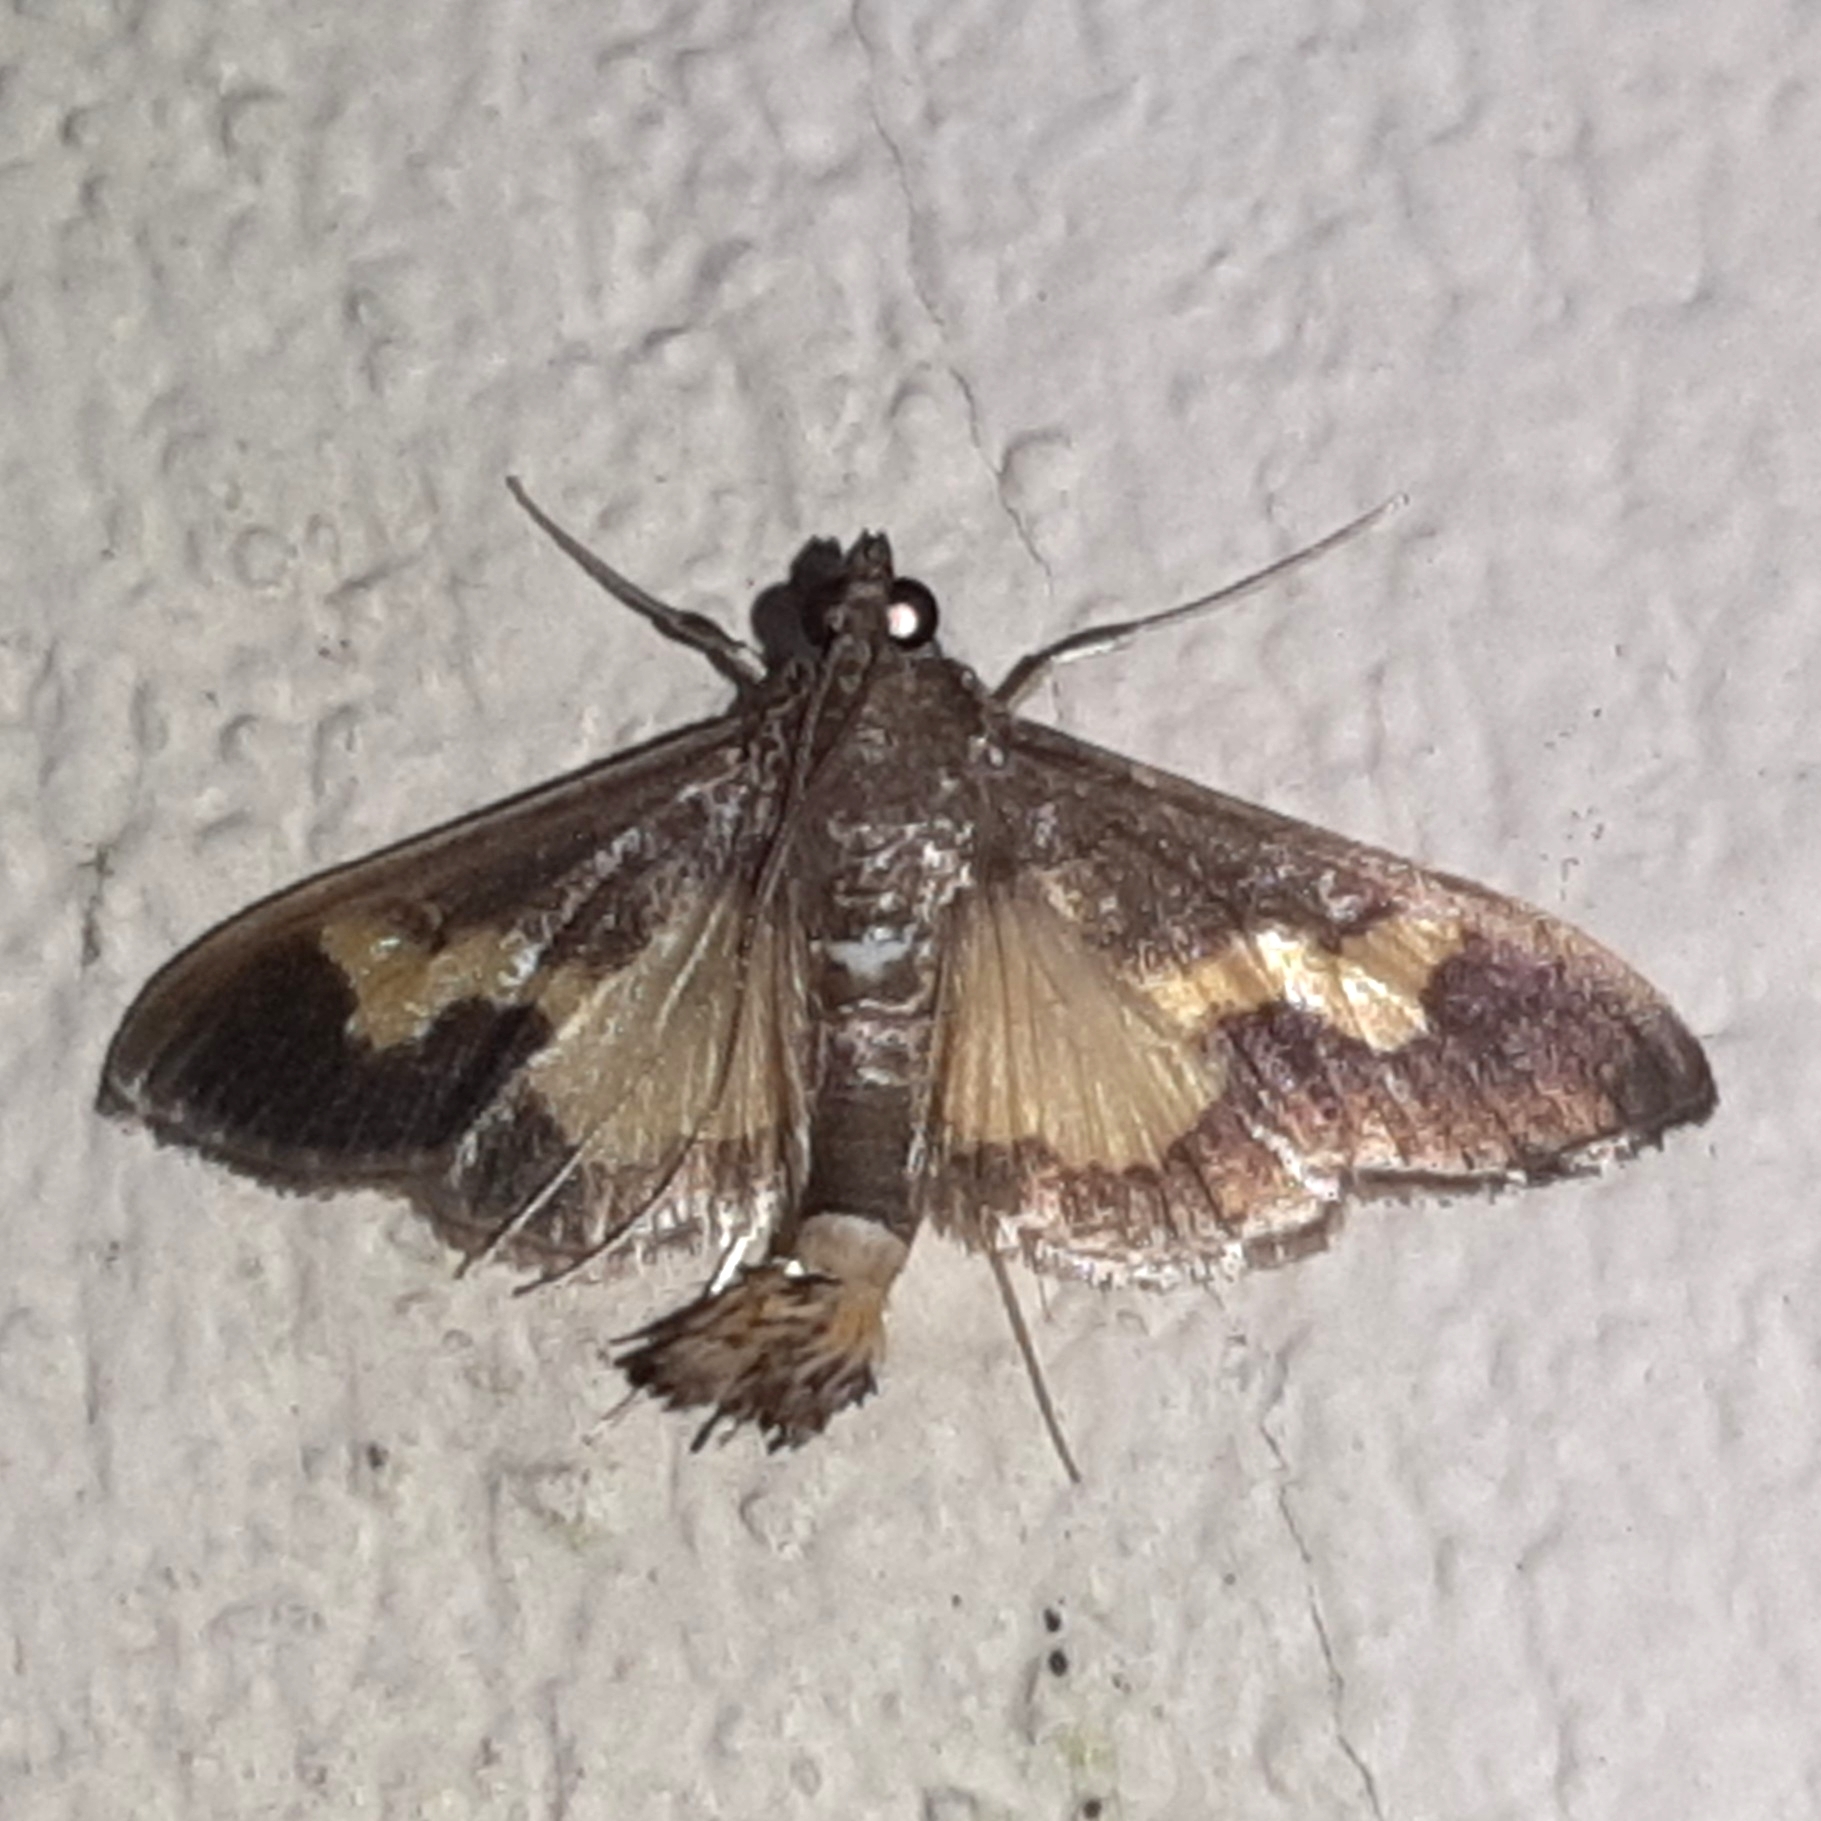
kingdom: Animalia
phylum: Arthropoda
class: Insecta
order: Lepidoptera
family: Crambidae
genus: Cryptographis
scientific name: Cryptographis nitidalis
